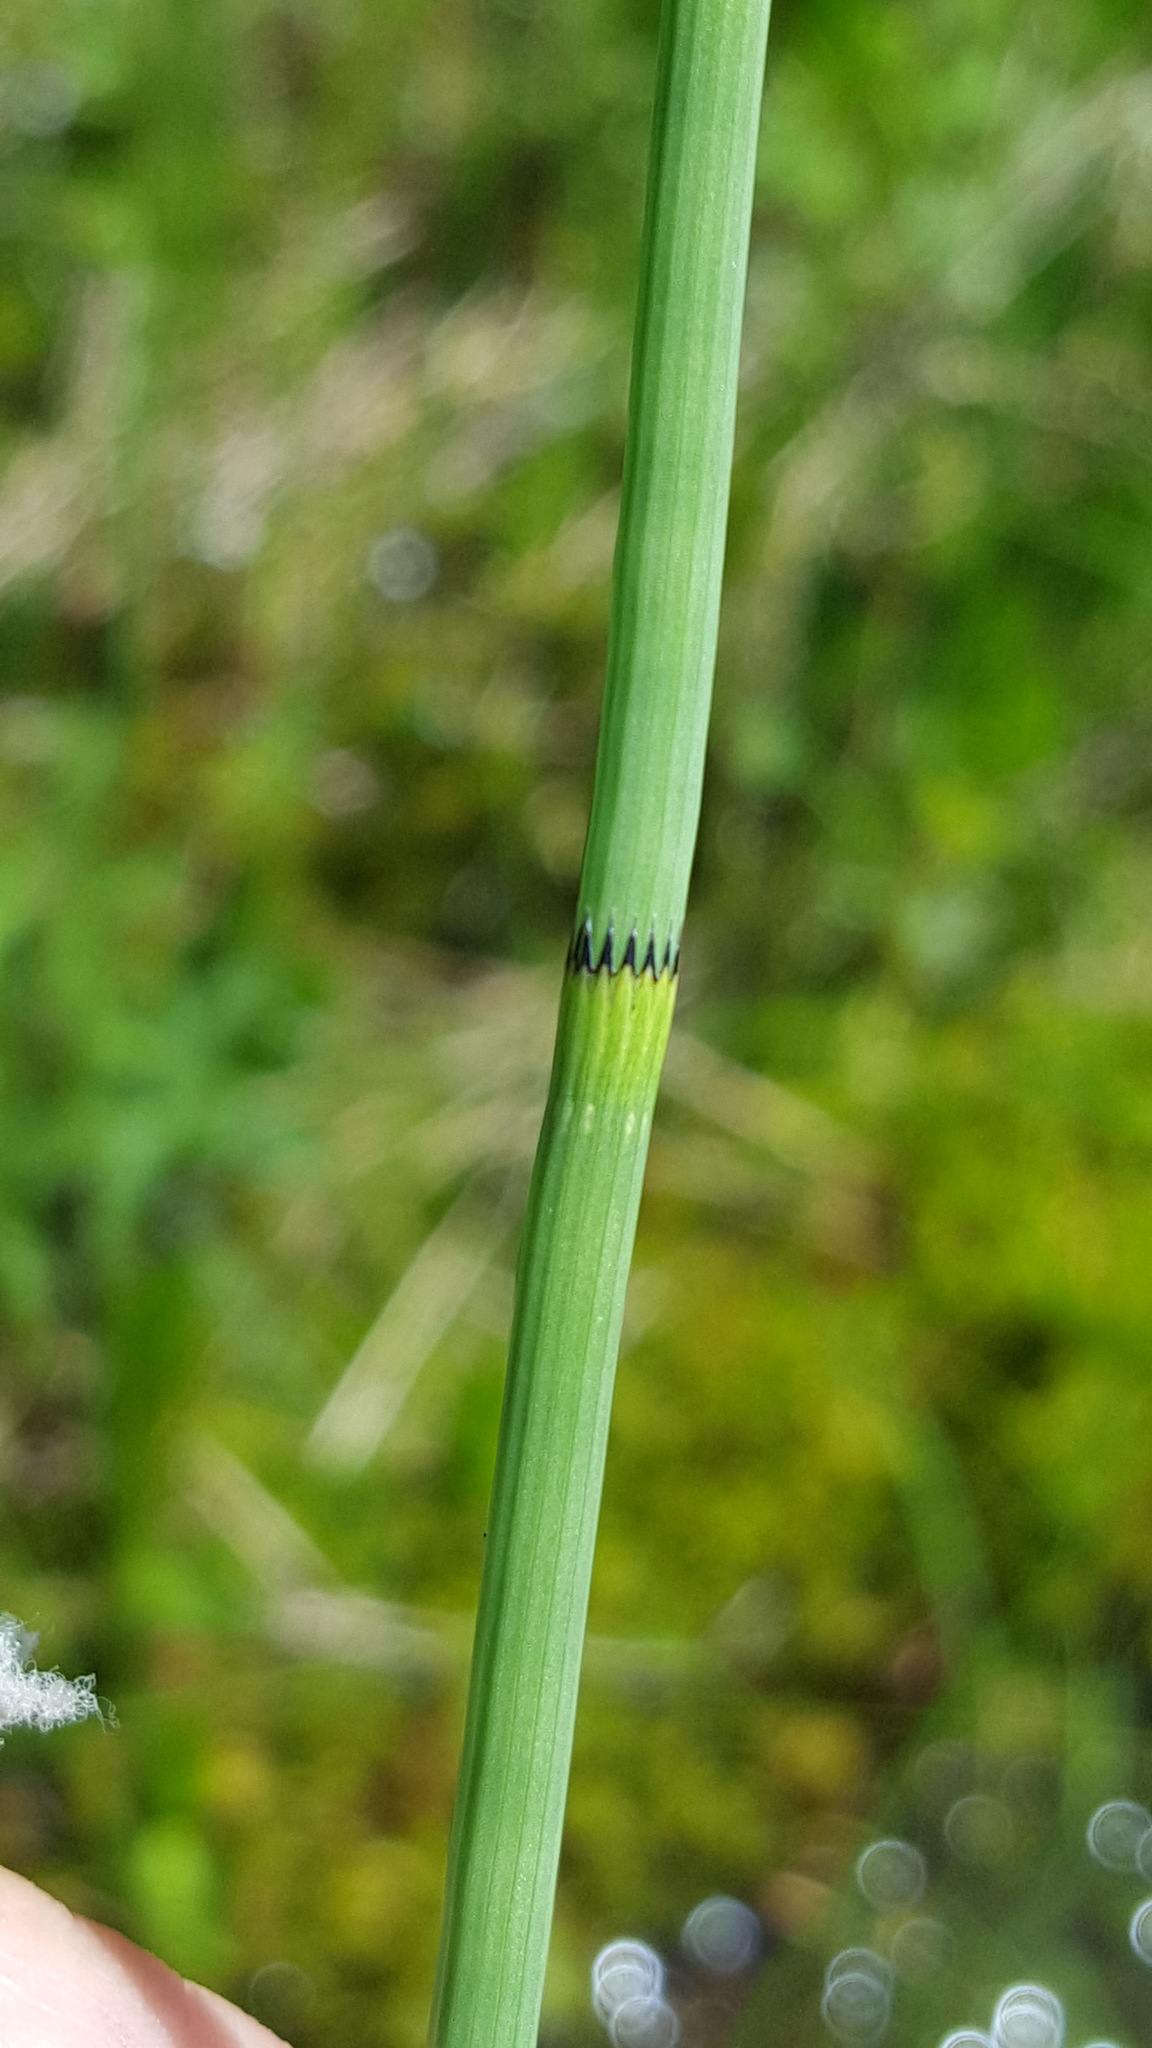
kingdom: Plantae
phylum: Tracheophyta
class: Polypodiopsida
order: Equisetales
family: Equisetaceae
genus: Equisetum
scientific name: Equisetum fluviatile
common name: Water horsetail
